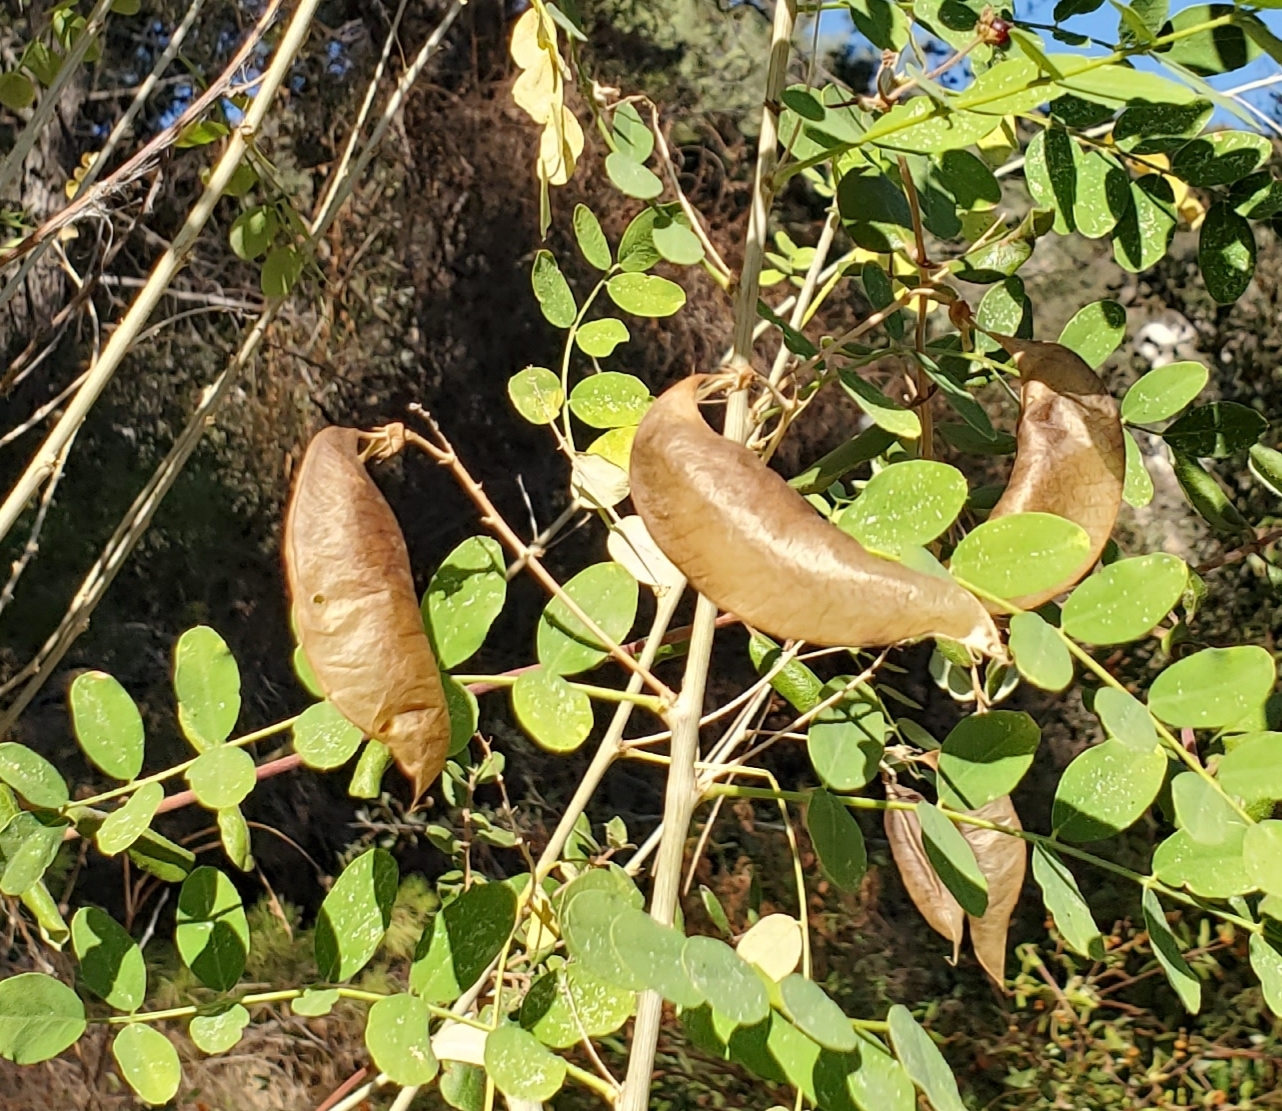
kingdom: Plantae
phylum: Tracheophyta
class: Magnoliopsida
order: Fabales
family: Fabaceae
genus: Colutea
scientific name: Colutea arborescens
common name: Bladder-senna
